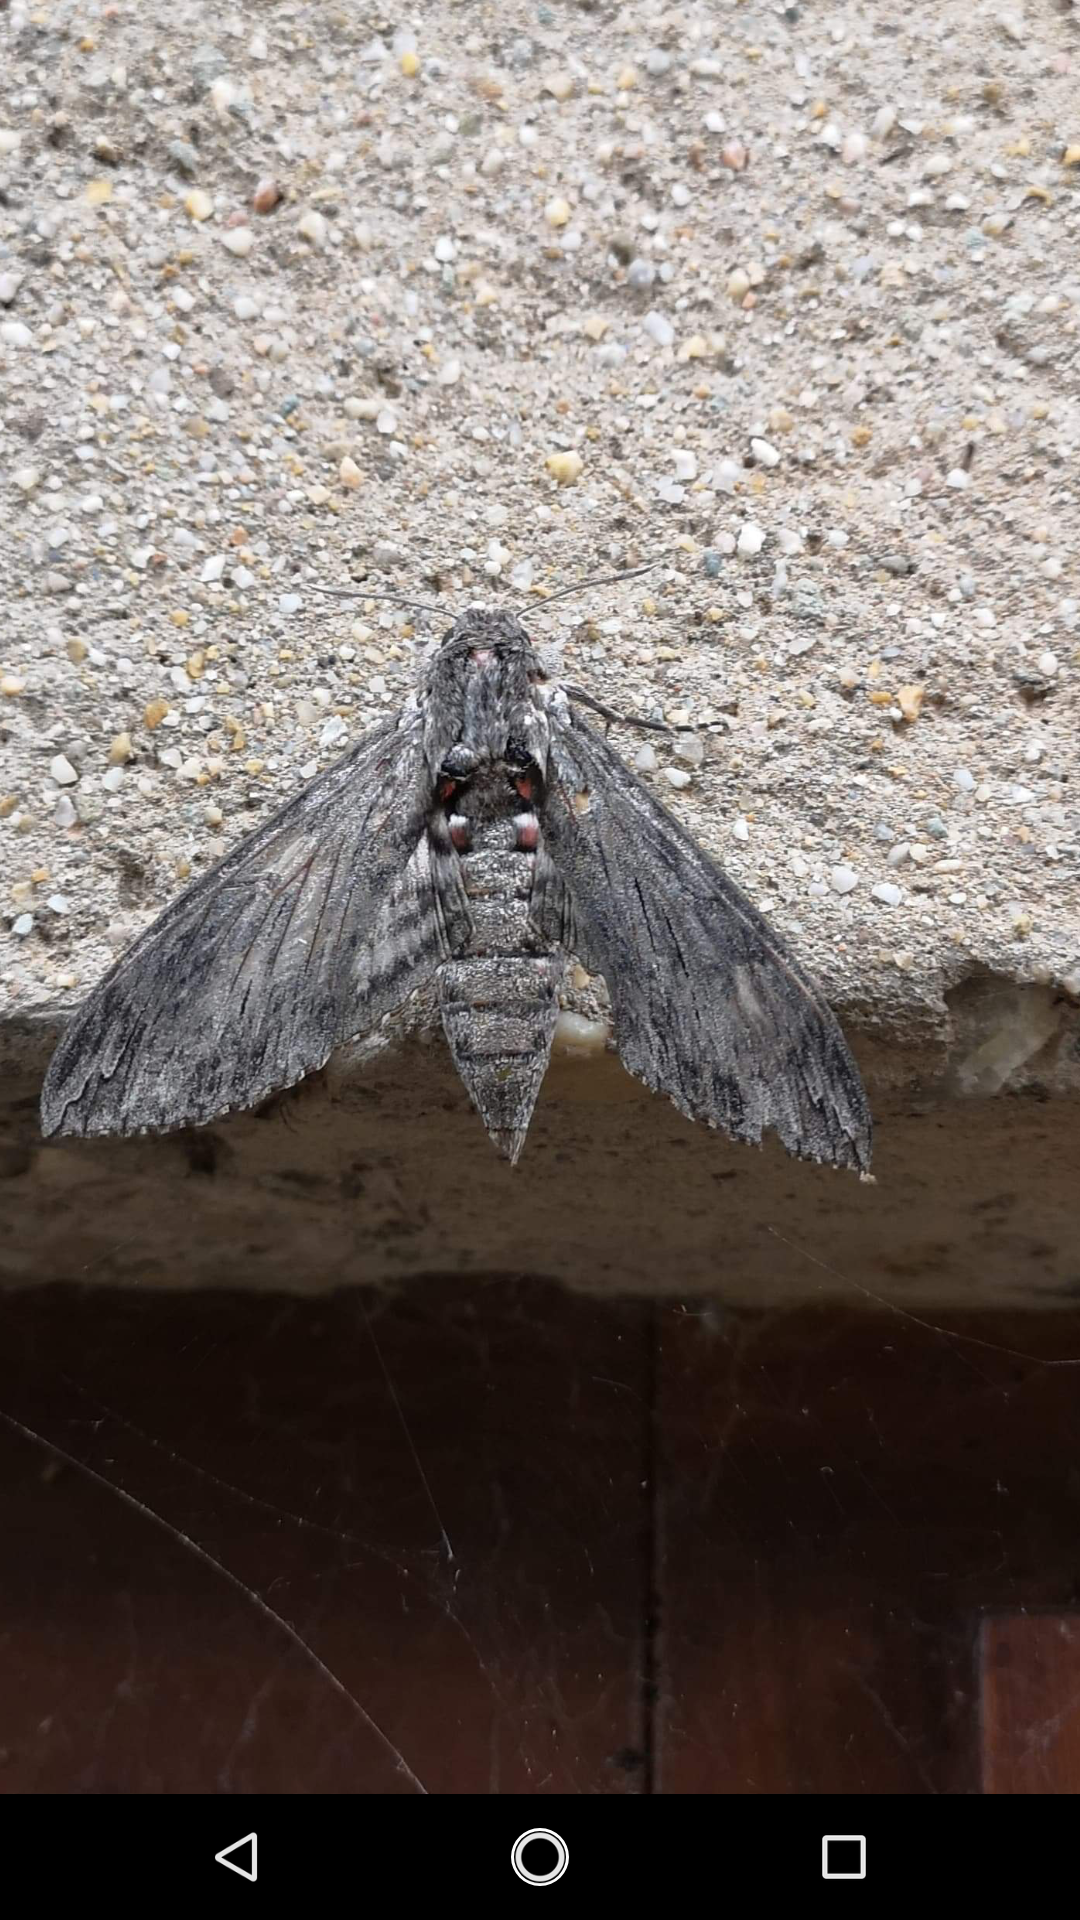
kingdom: Animalia
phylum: Arthropoda
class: Insecta
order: Lepidoptera
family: Sphingidae
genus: Agrius
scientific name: Agrius convolvuli
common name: Convolvulus hawkmoth
